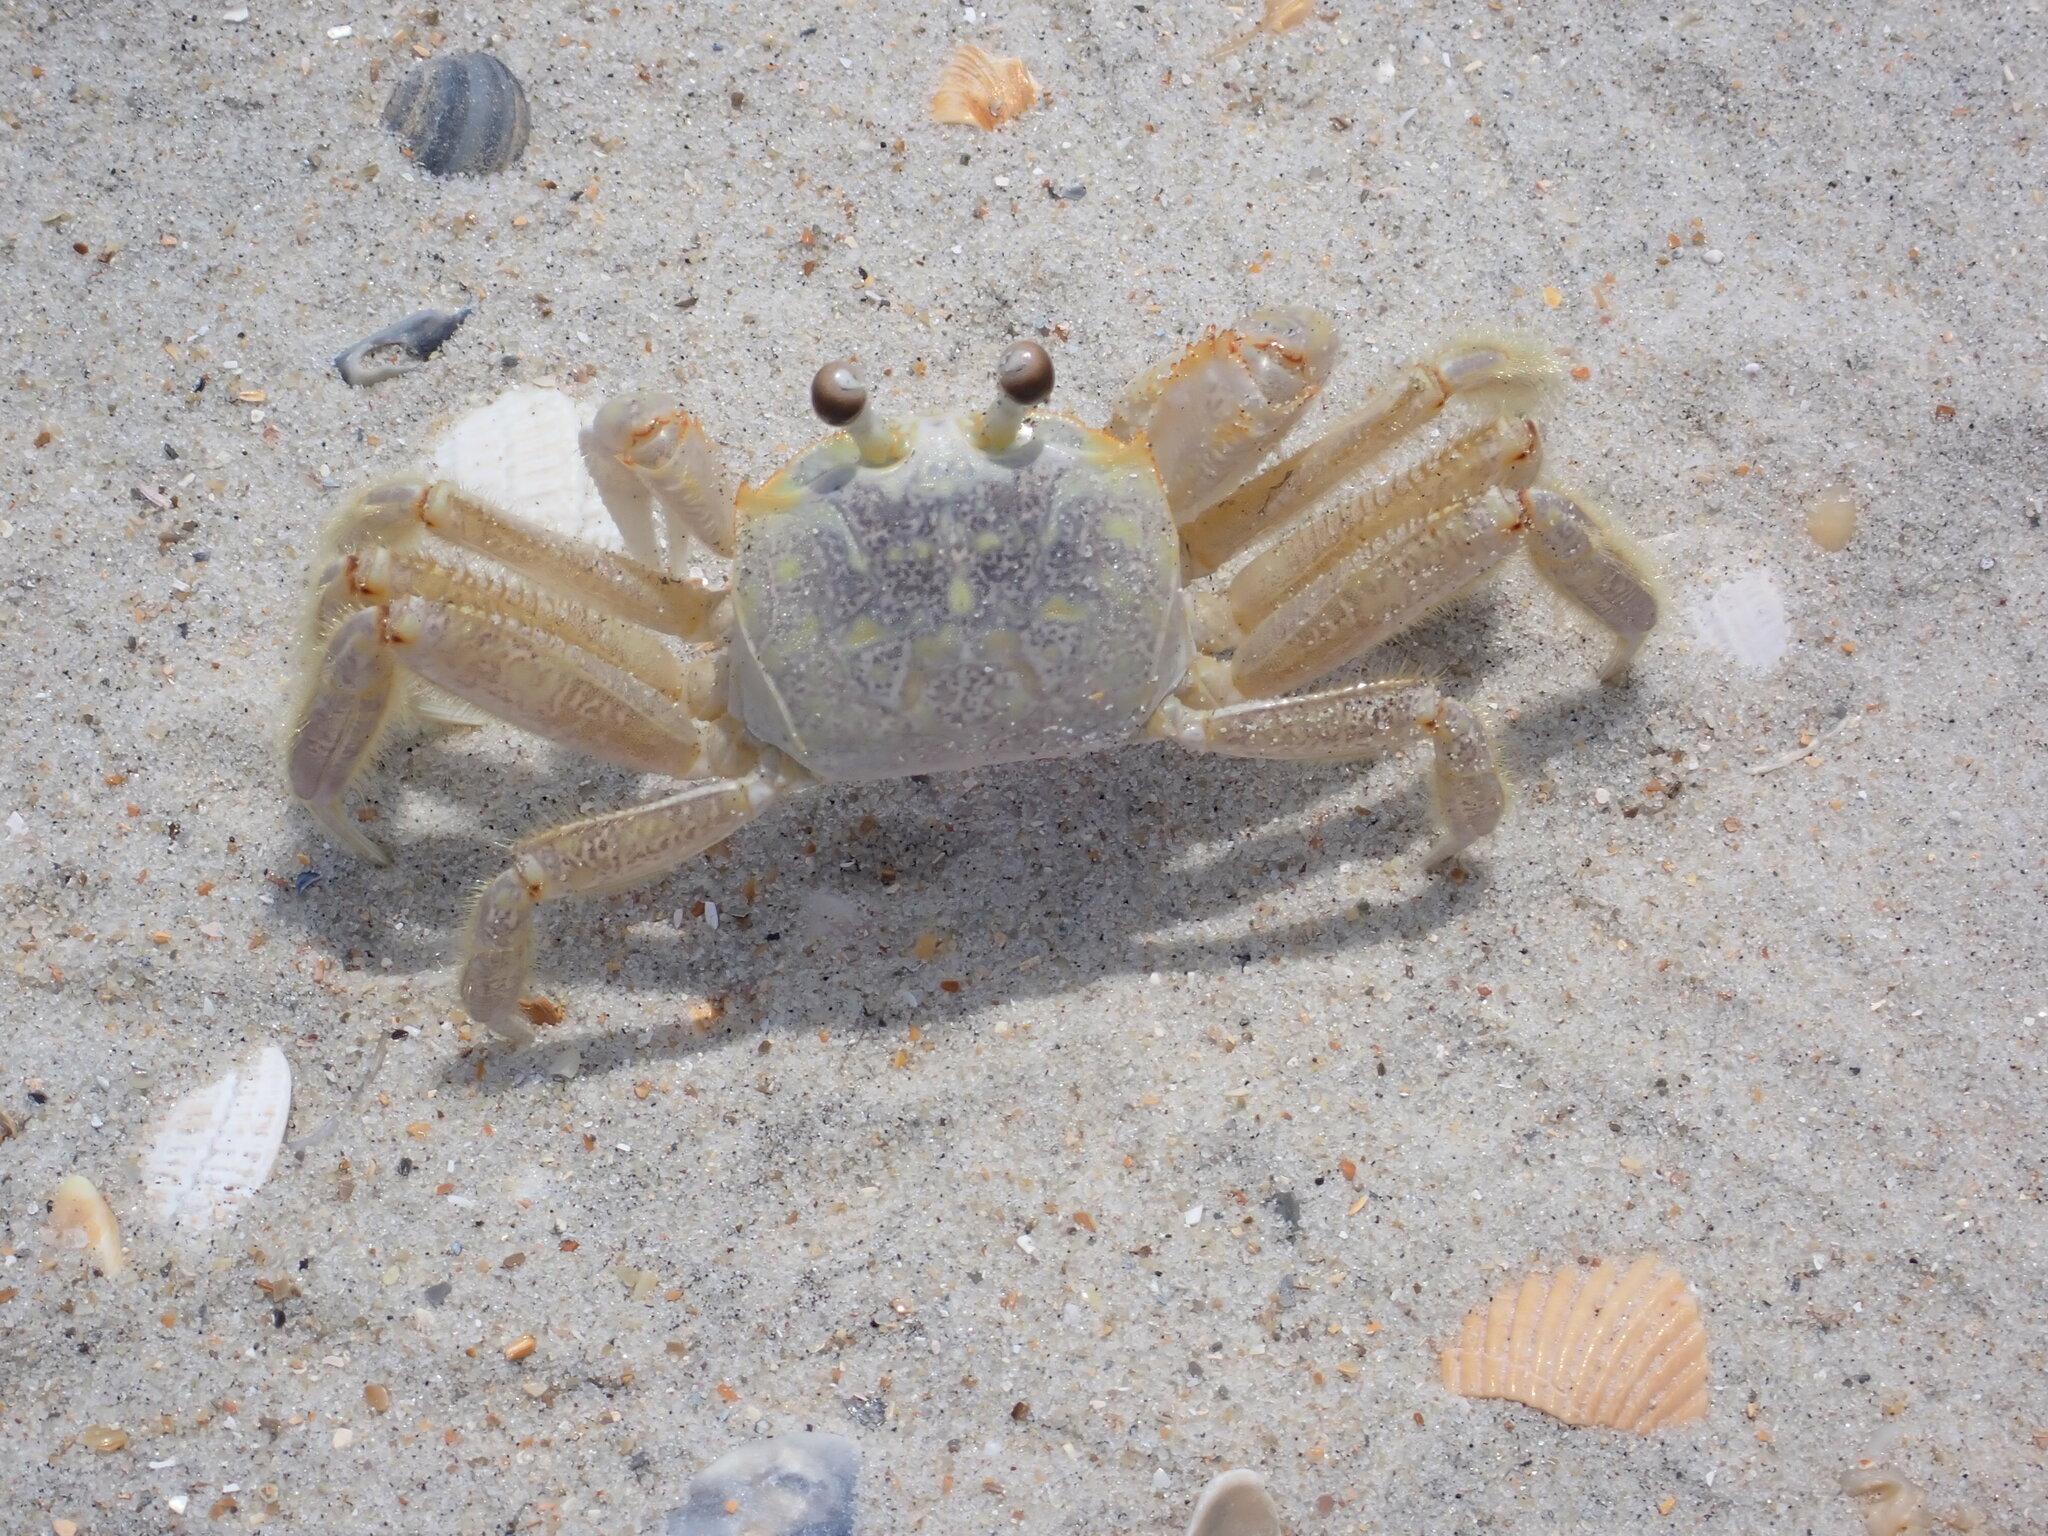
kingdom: Animalia
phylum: Arthropoda
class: Malacostraca
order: Decapoda
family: Ocypodidae
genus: Ocypode
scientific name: Ocypode quadrata
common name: Ghost crab
